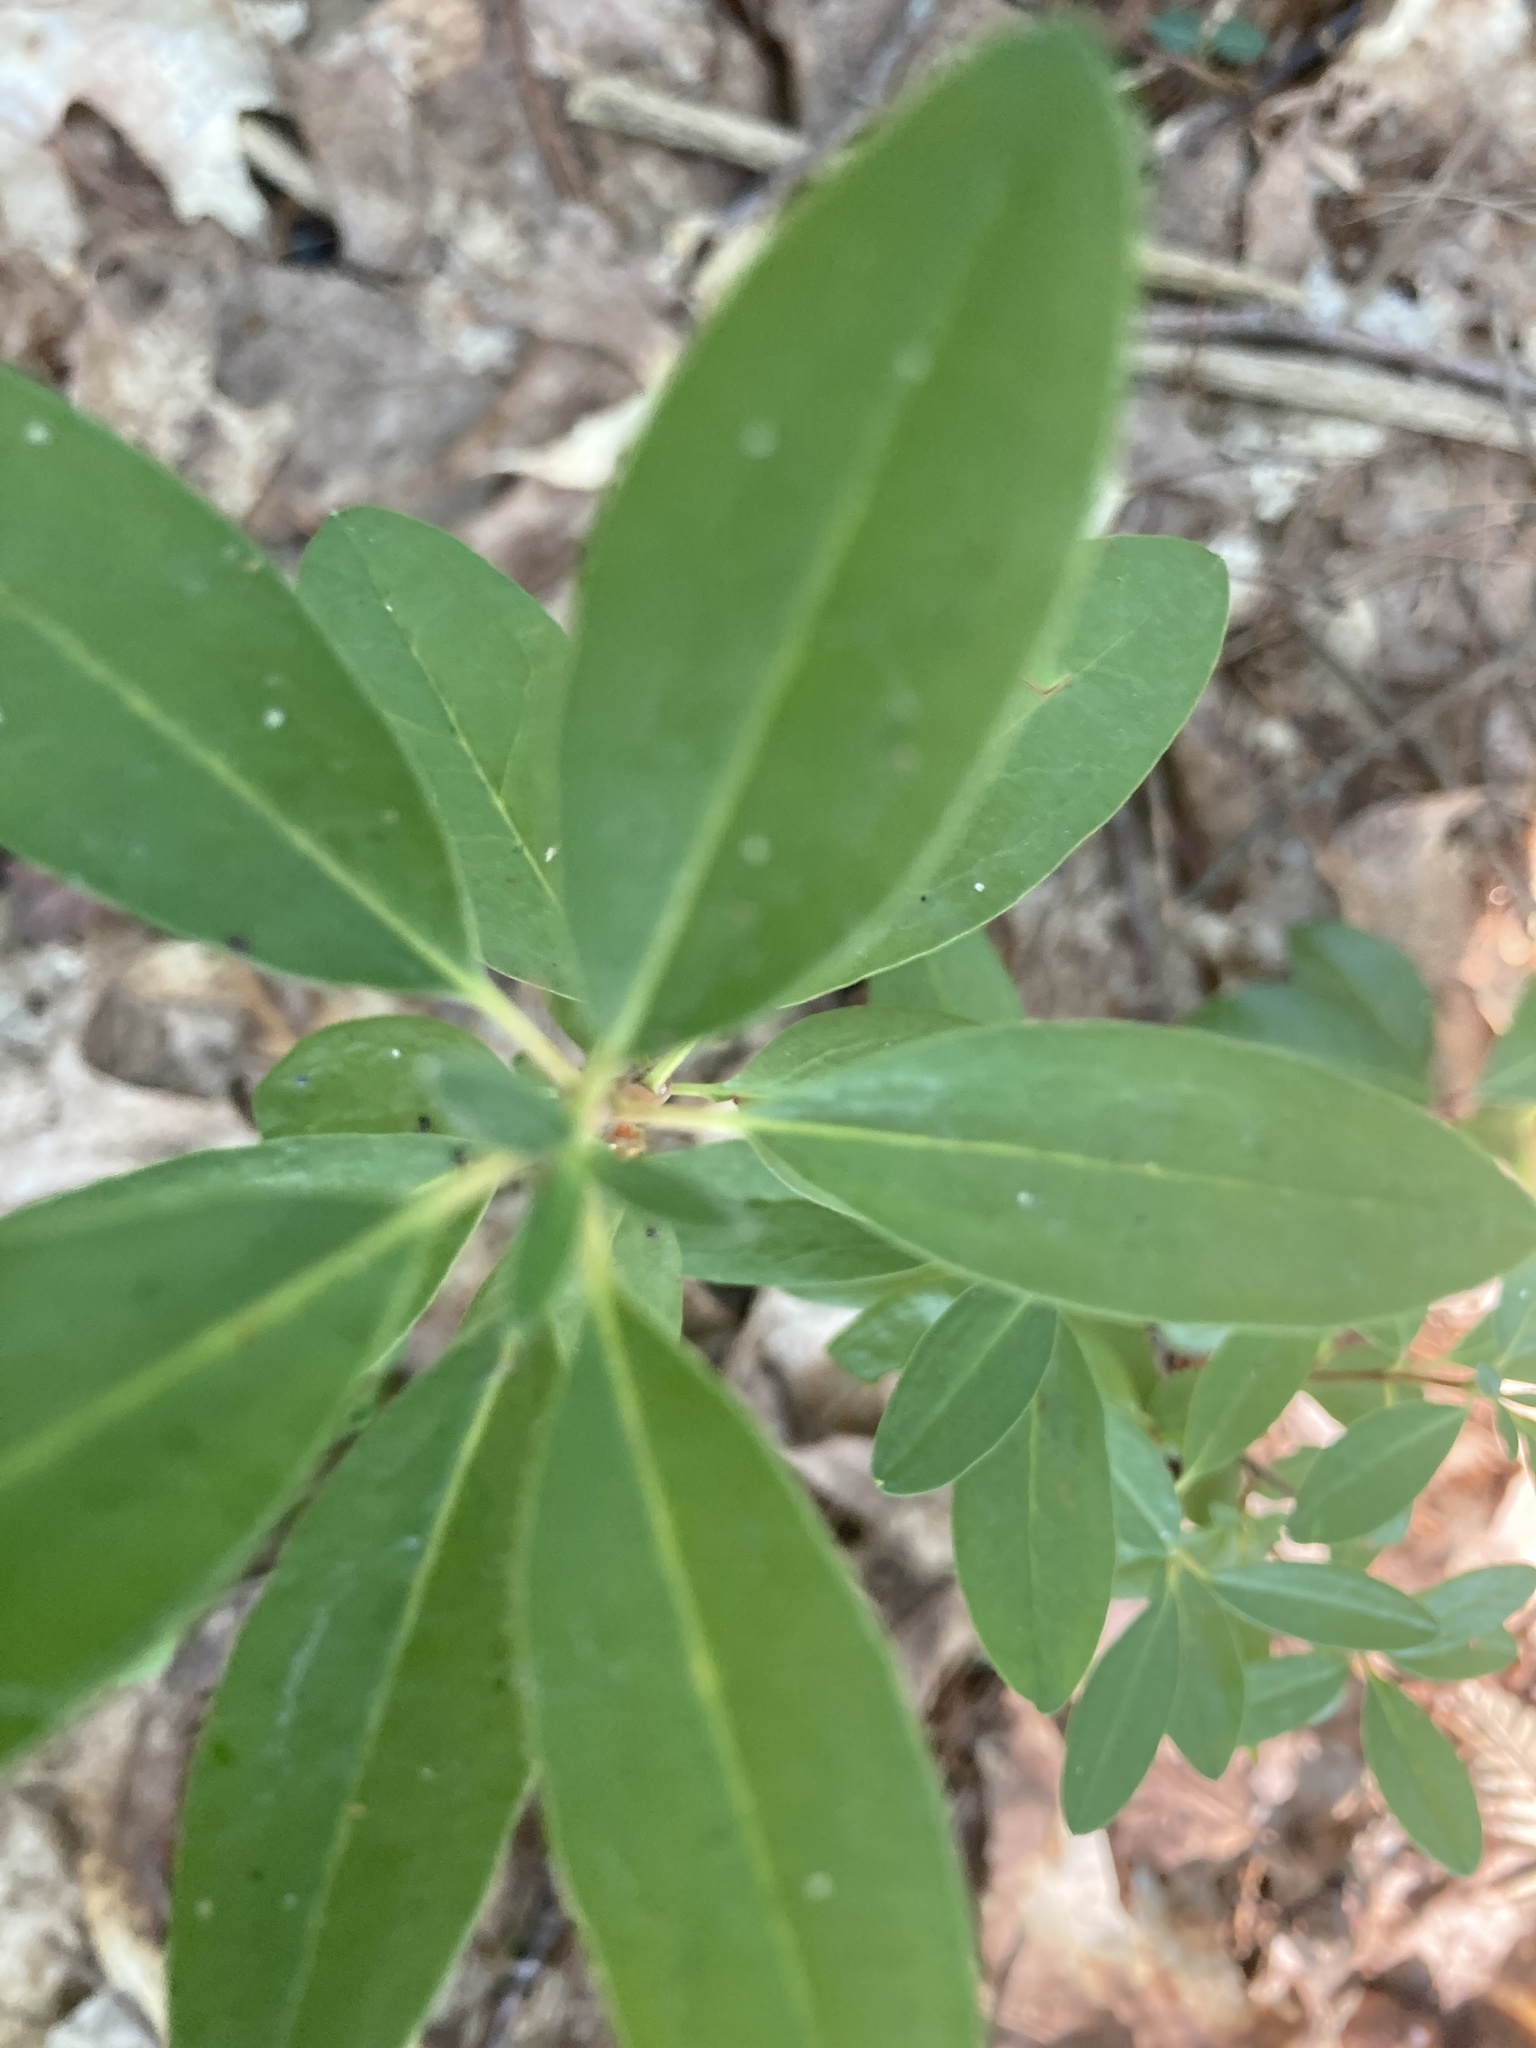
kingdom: Plantae
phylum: Tracheophyta
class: Magnoliopsida
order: Ericales
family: Ericaceae
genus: Kalmia
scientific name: Kalmia angustifolia
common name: Sheep-laurel
